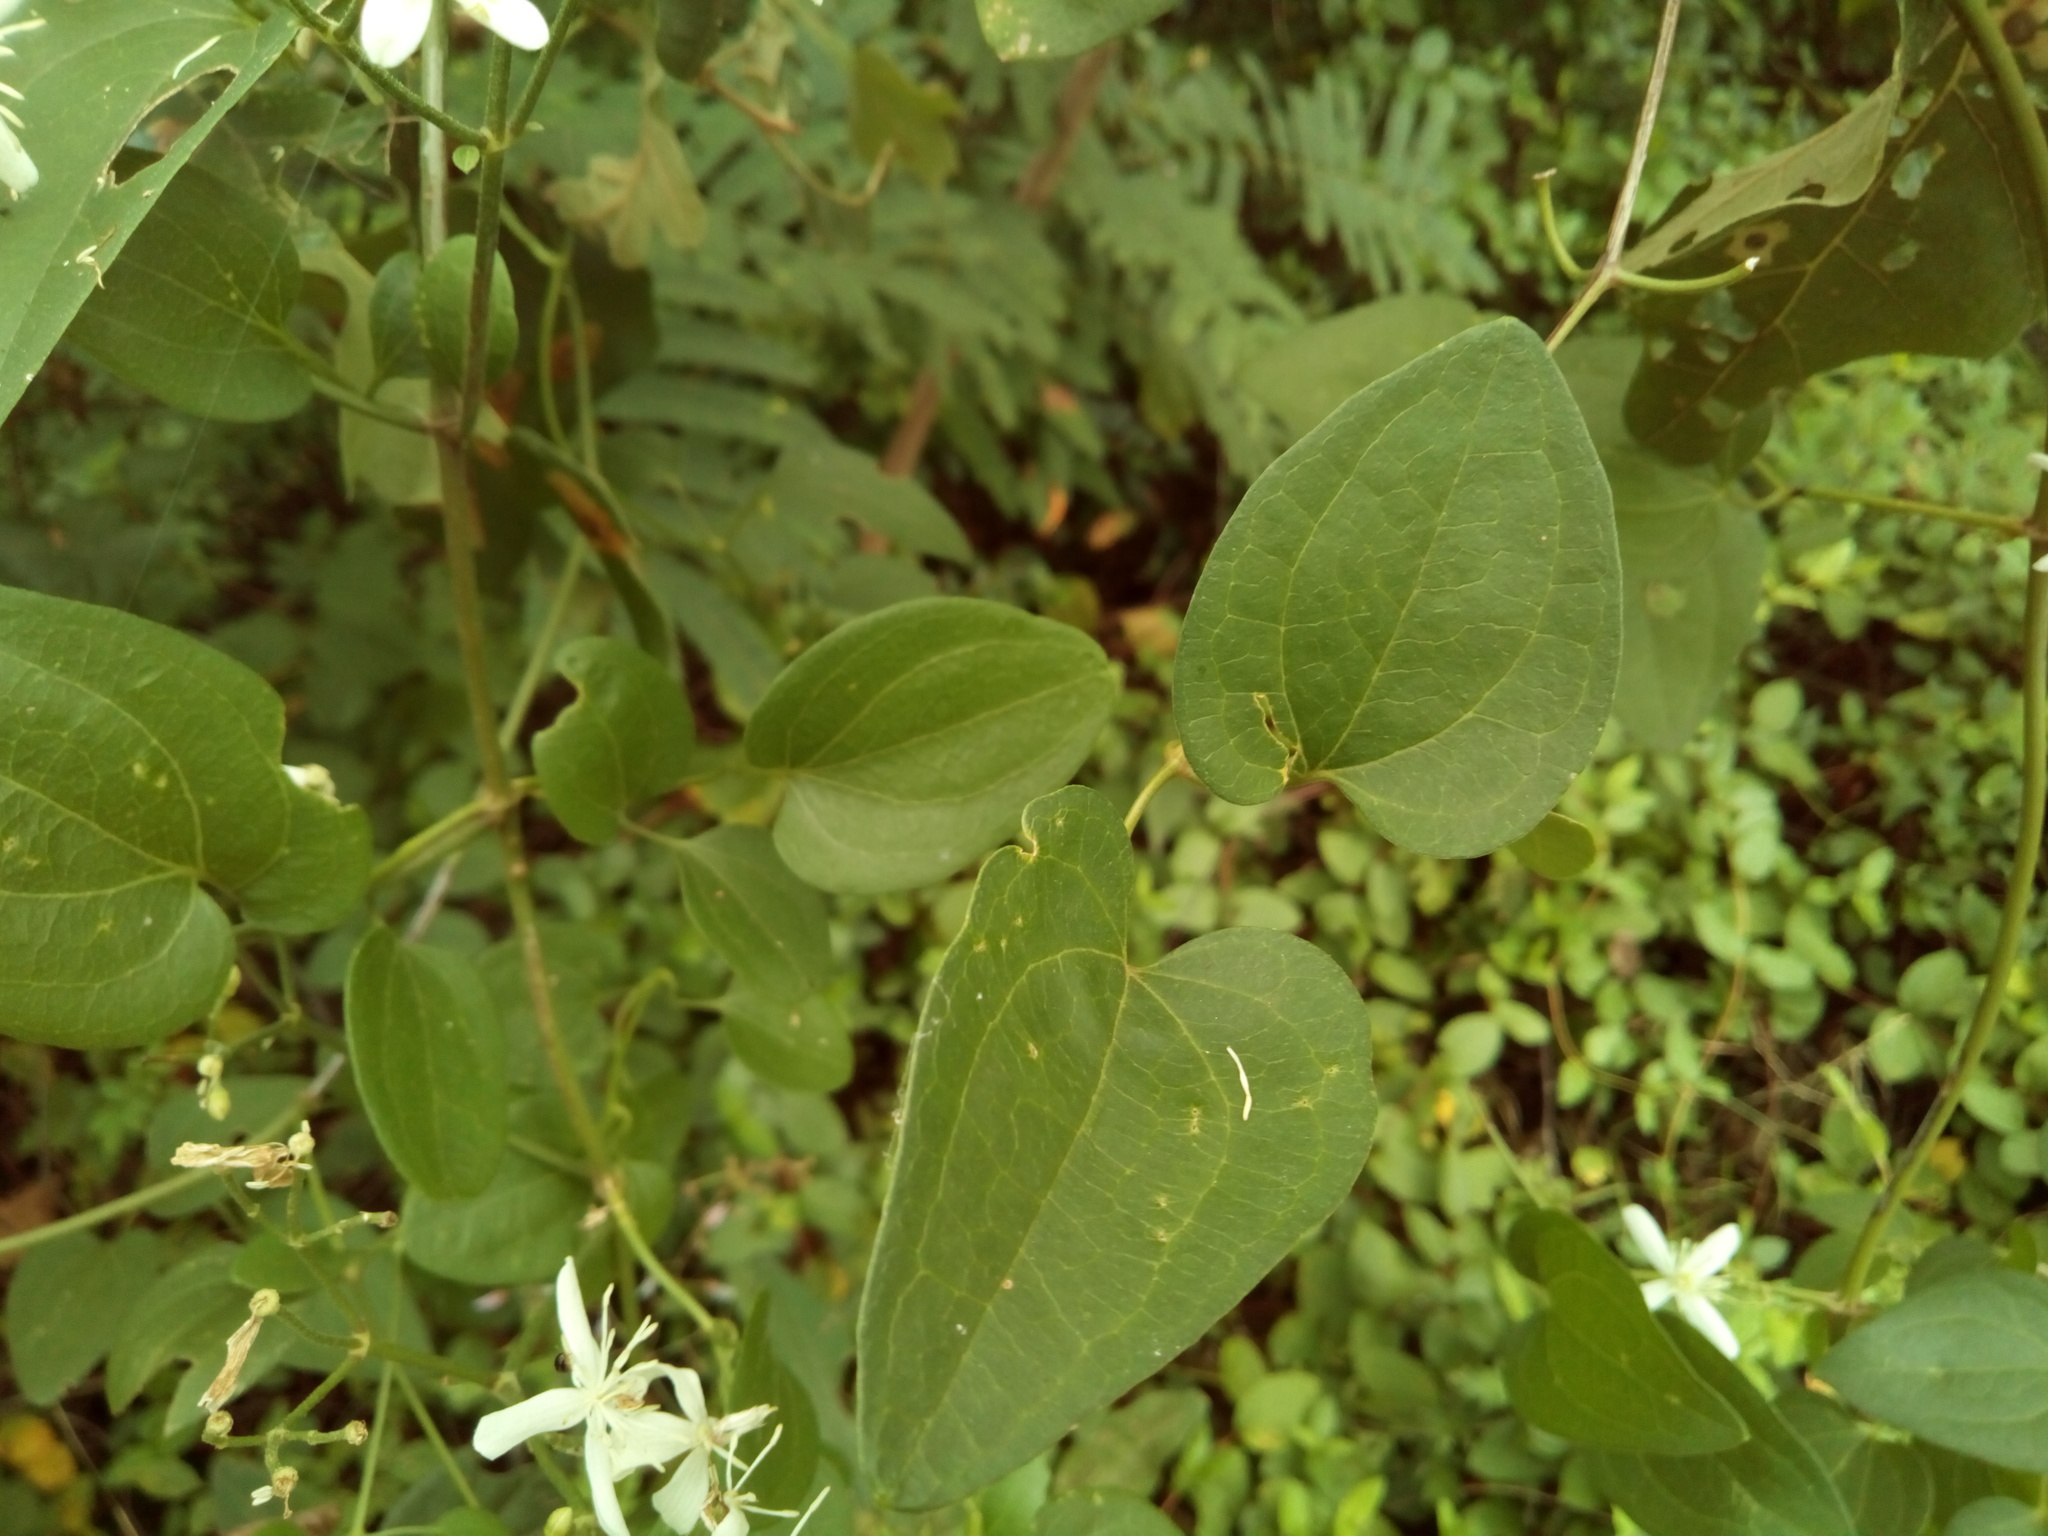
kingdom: Plantae
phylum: Tracheophyta
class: Magnoliopsida
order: Ranunculales
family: Ranunculaceae
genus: Clematis
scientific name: Clematis terniflora
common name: Sweet autumn clematis
